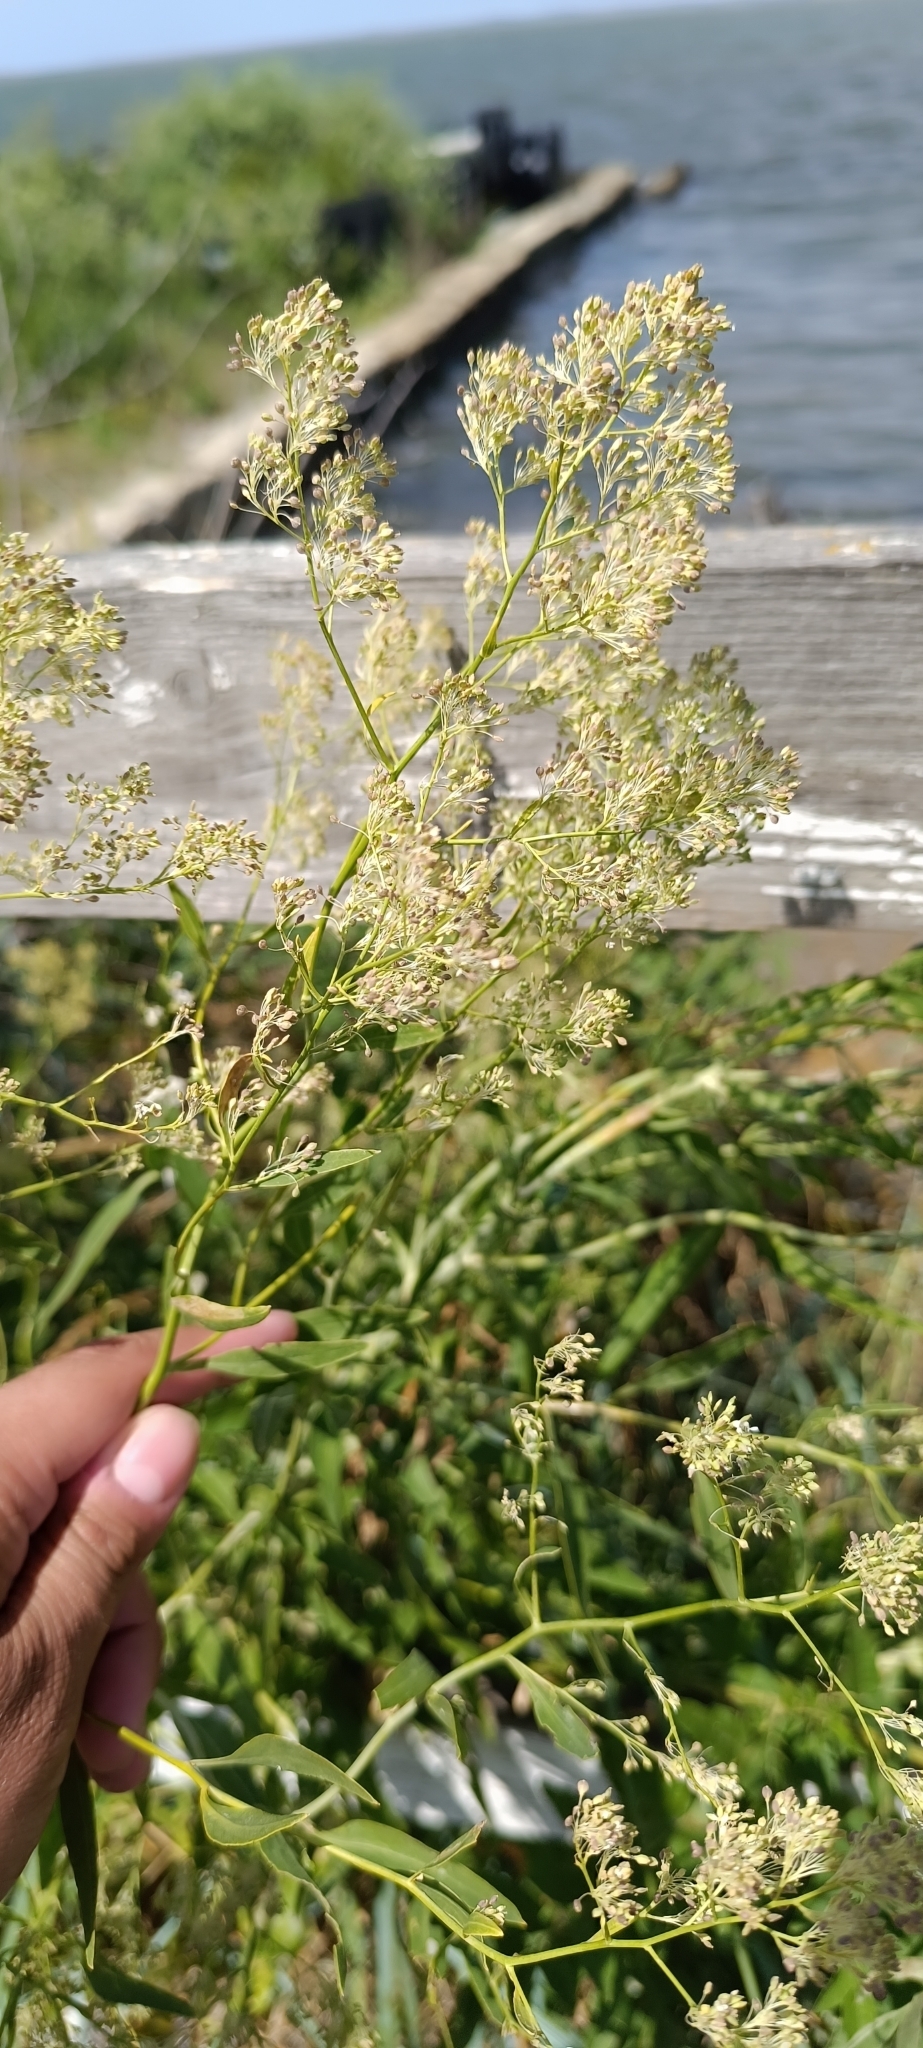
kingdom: Plantae
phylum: Tracheophyta
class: Magnoliopsida
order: Brassicales
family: Brassicaceae
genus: Lepidium
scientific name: Lepidium latifolium
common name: Dittander
